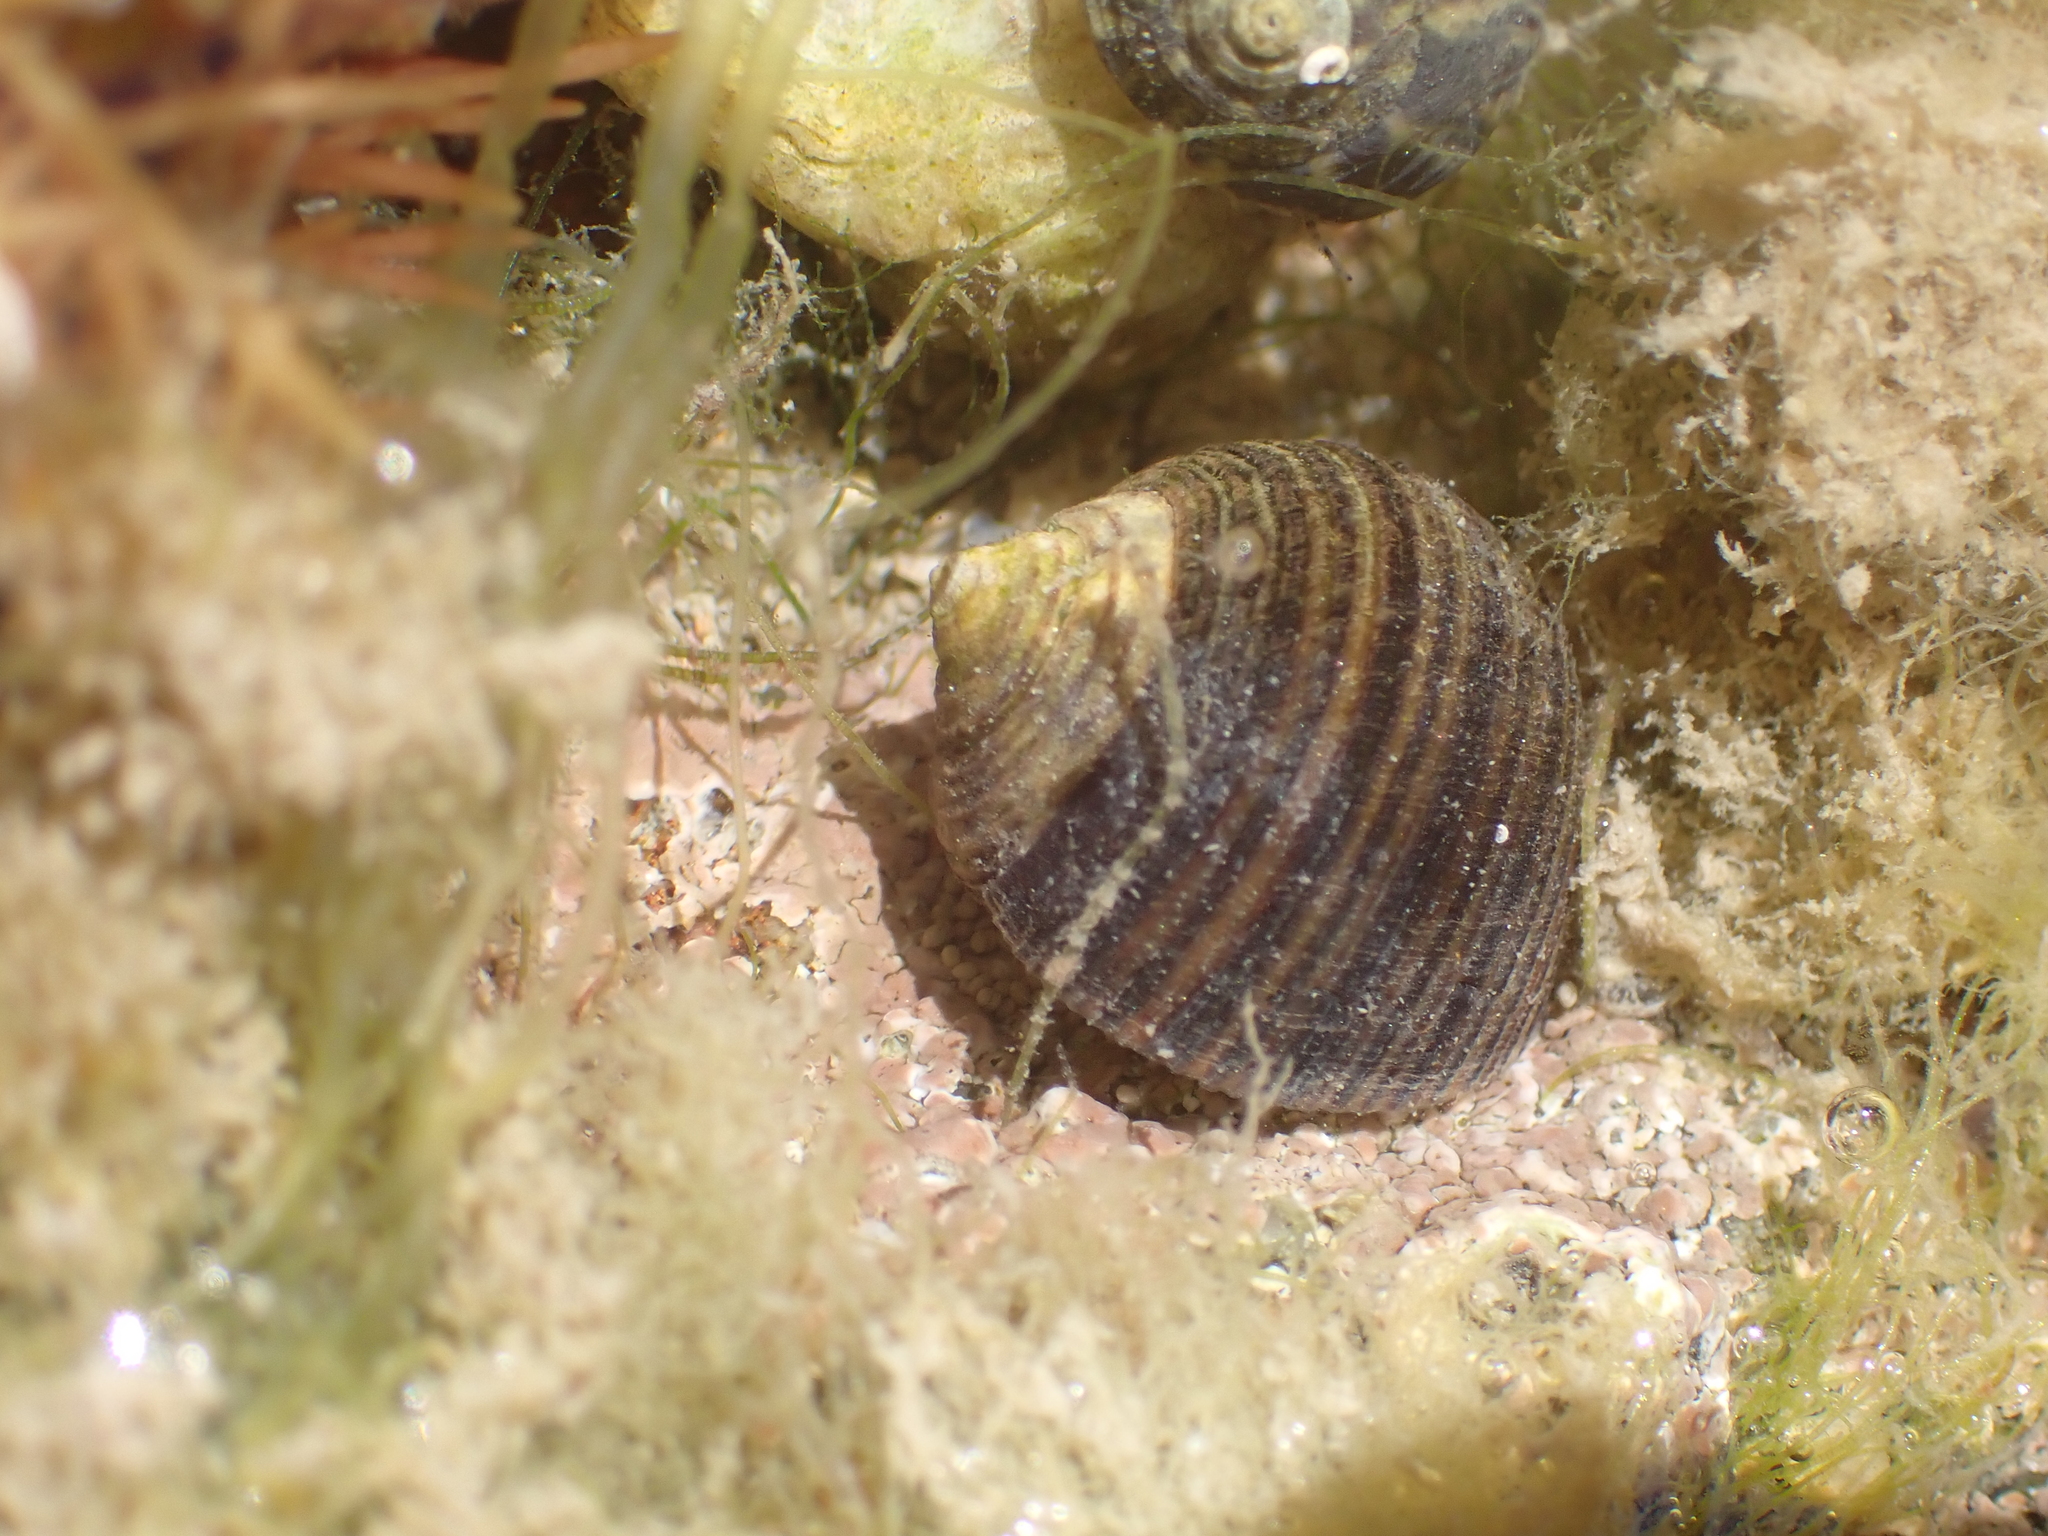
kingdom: Animalia
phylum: Mollusca
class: Gastropoda
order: Littorinimorpha
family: Littorinidae
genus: Littorina
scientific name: Littorina littorea
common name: Common periwinkle
